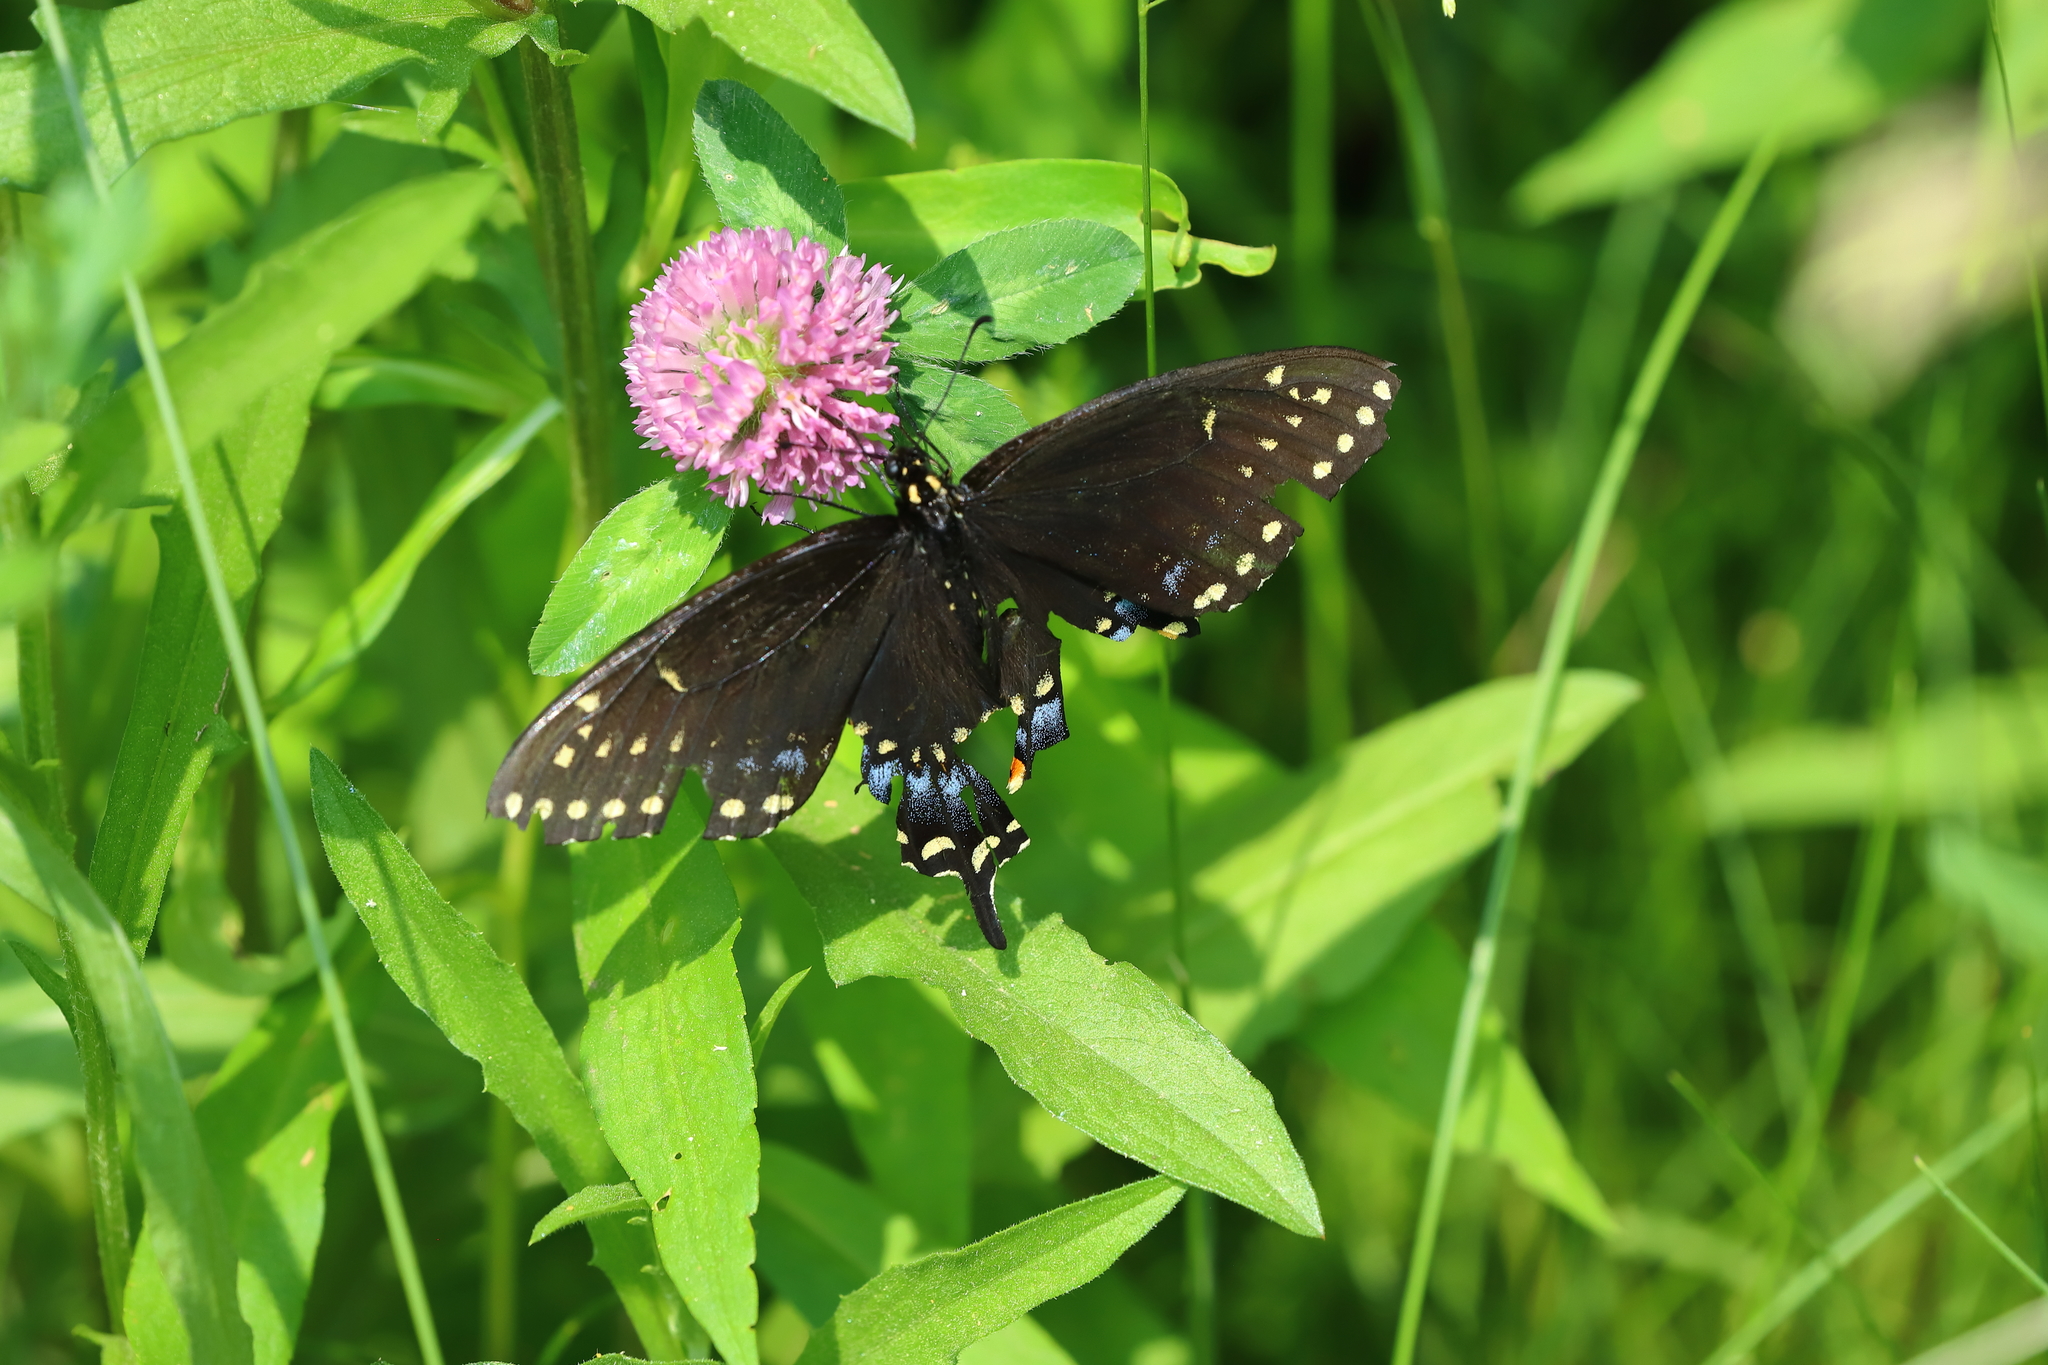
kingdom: Animalia
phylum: Arthropoda
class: Insecta
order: Lepidoptera
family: Papilionidae
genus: Papilio
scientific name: Papilio polyxenes
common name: Black swallowtail
